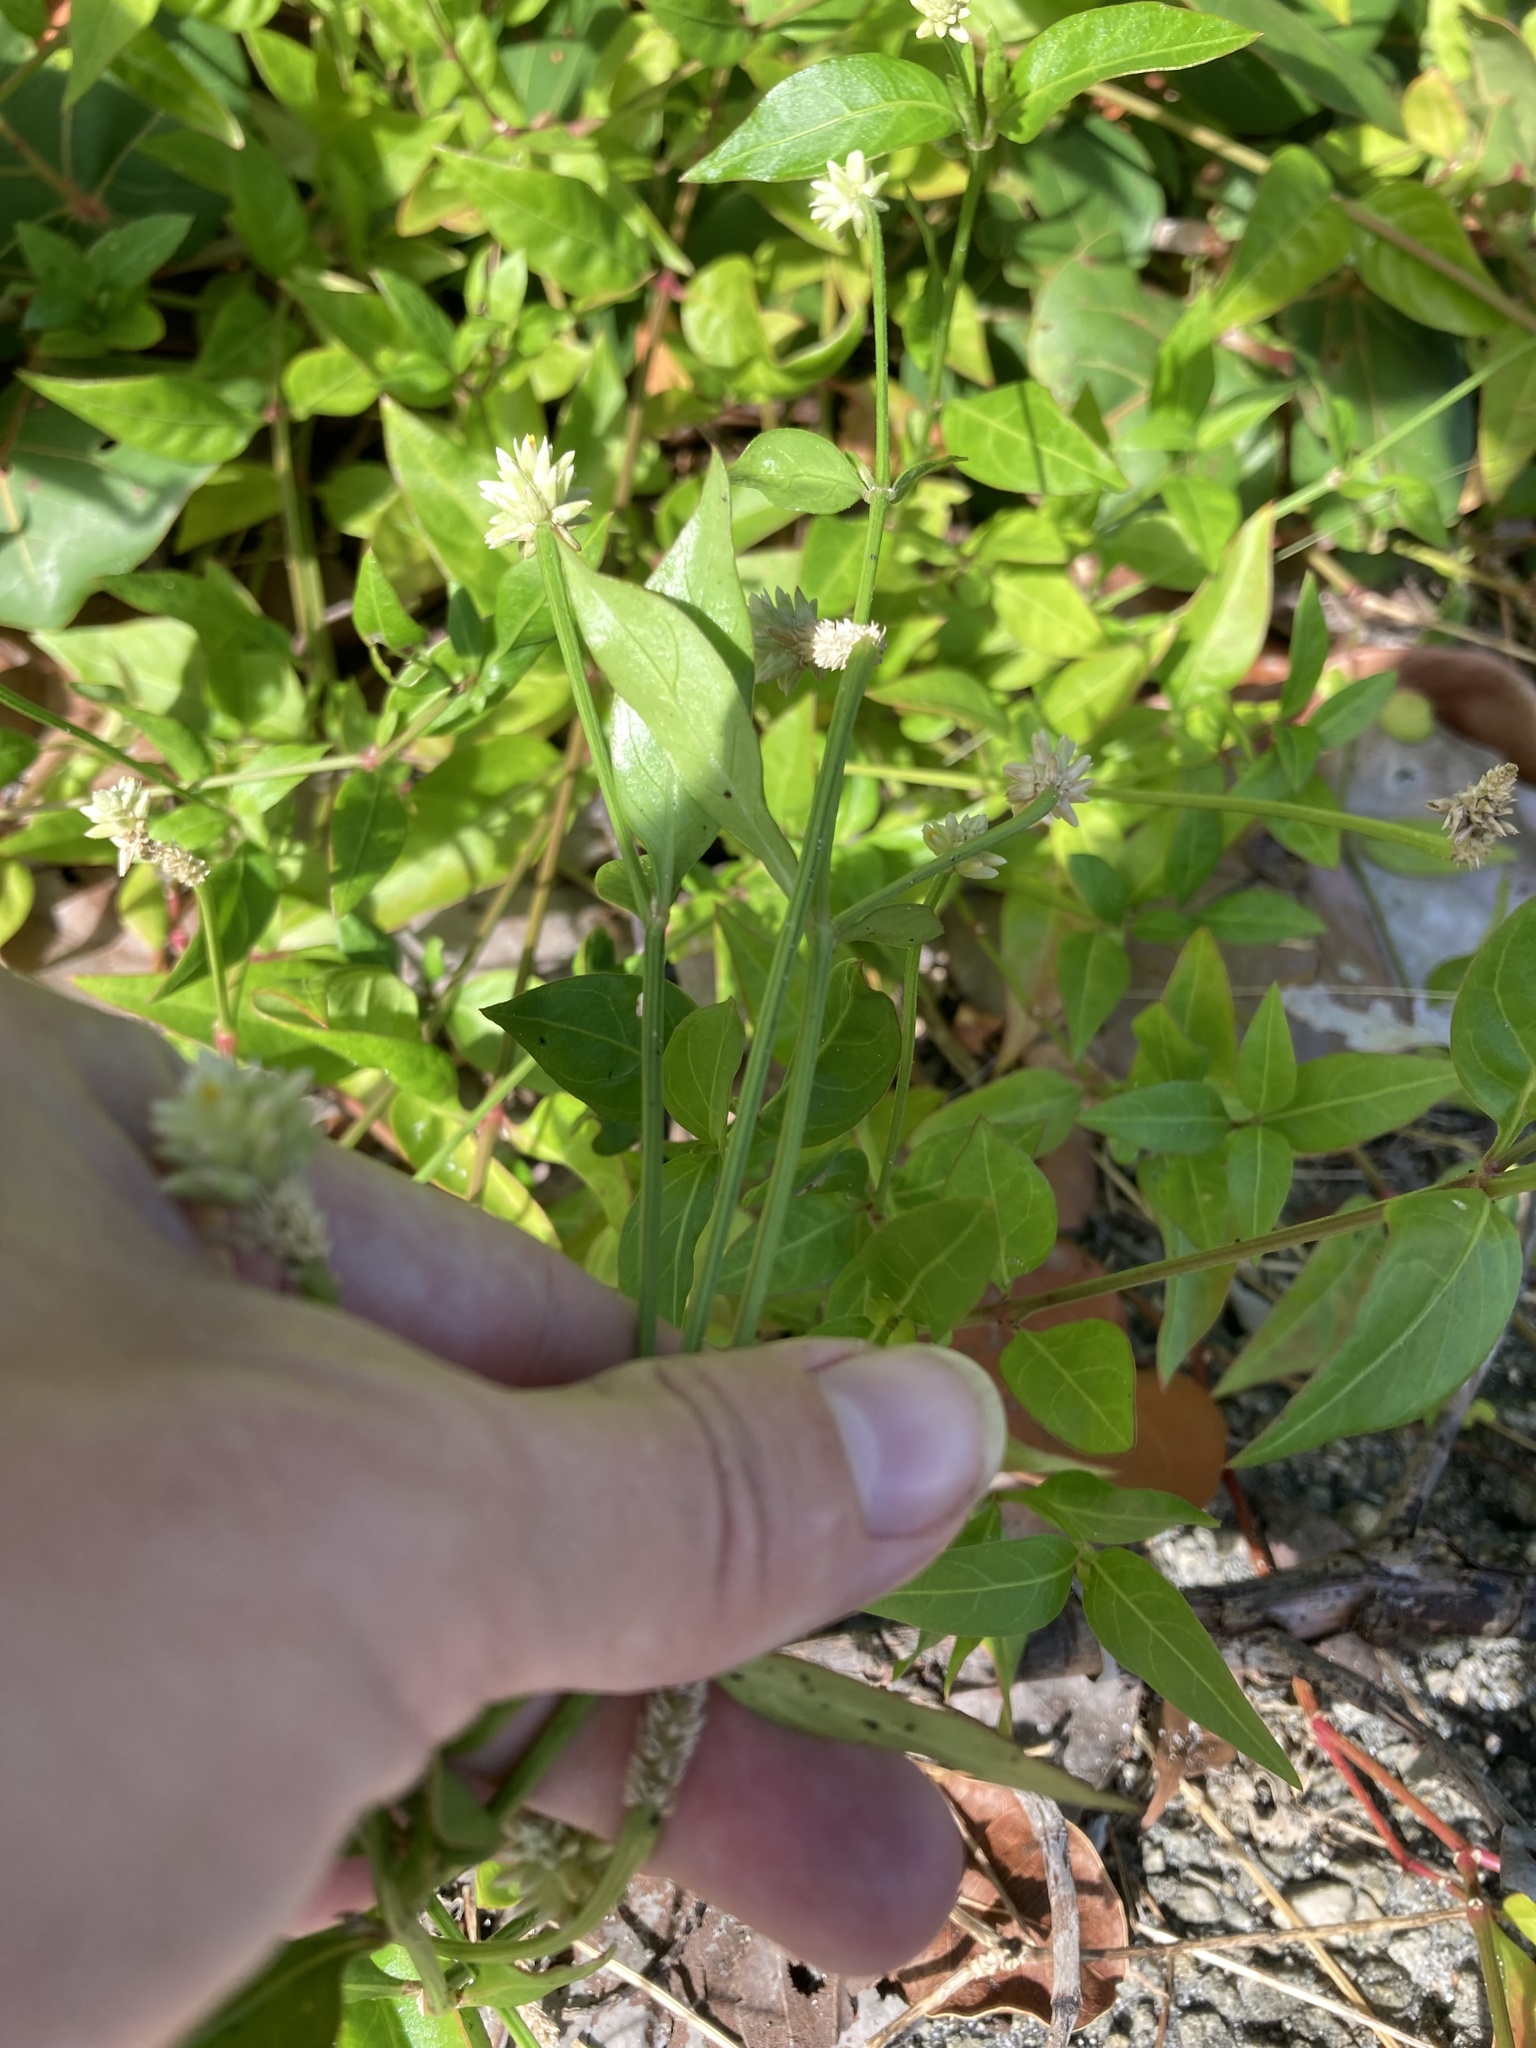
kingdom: Plantae
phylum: Tracheophyta
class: Magnoliopsida
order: Caryophyllales
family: Amaranthaceae
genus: Alternanthera
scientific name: Alternanthera flavescens
